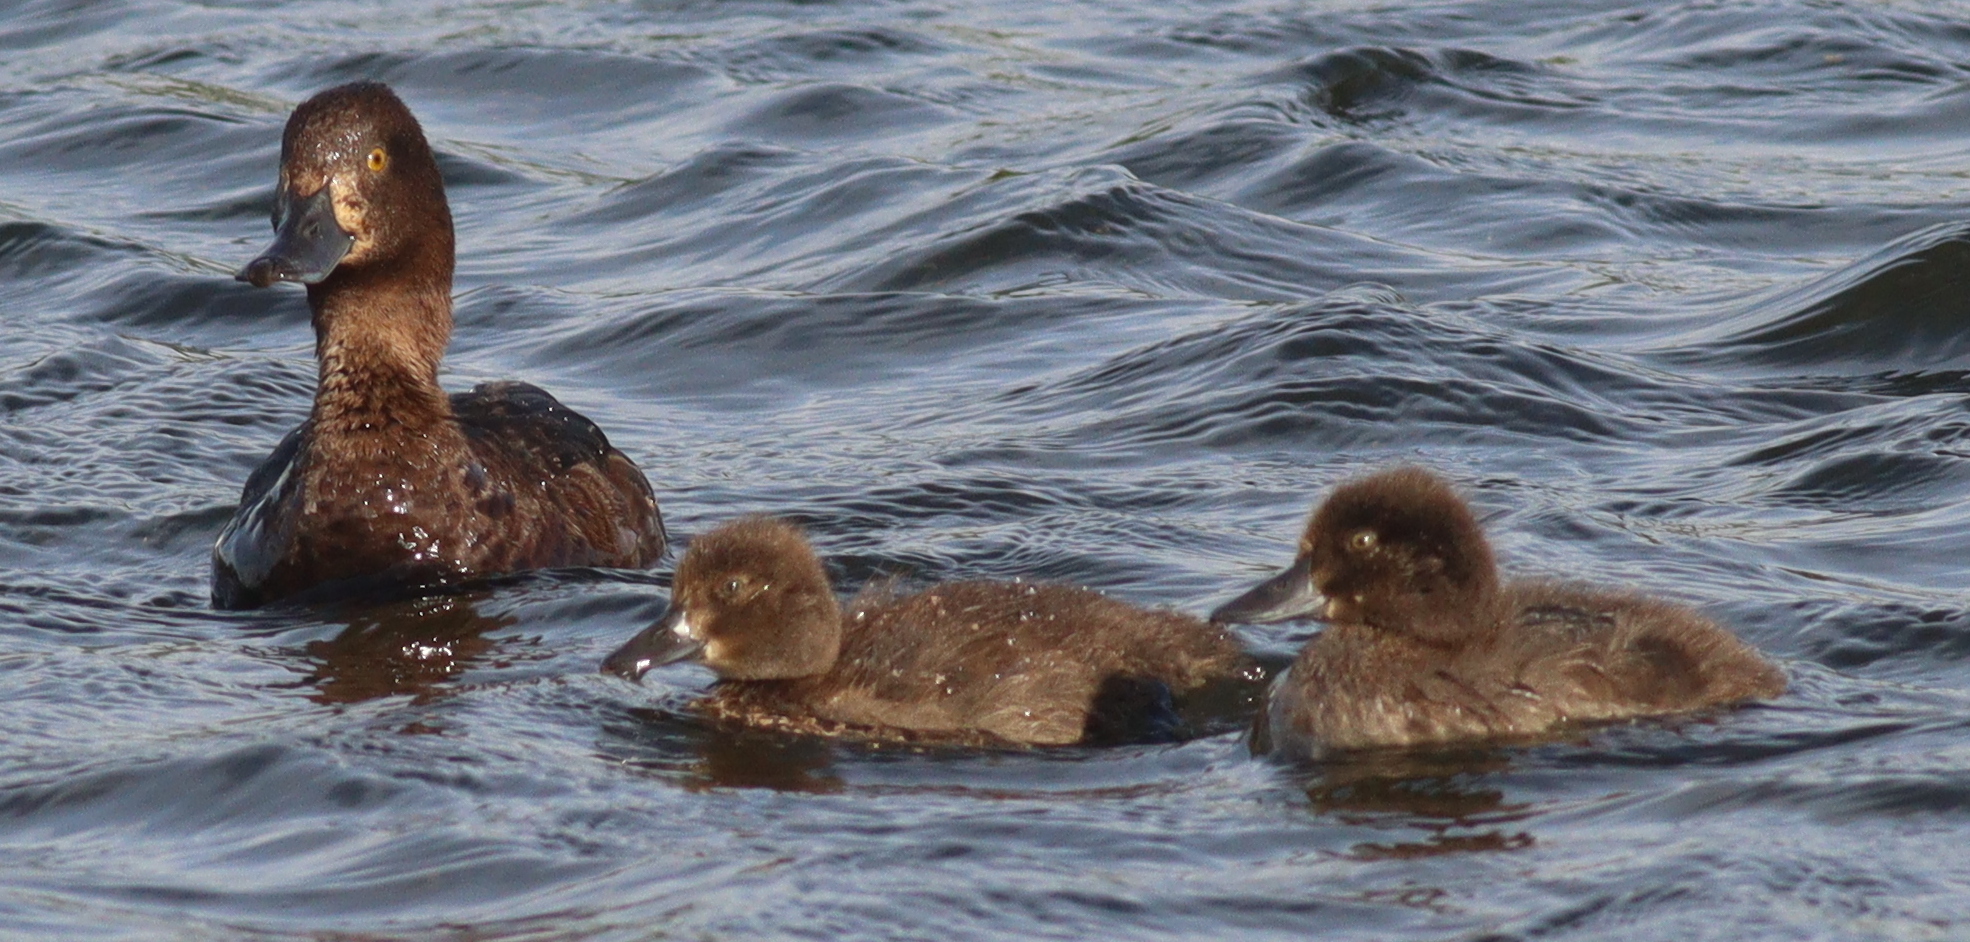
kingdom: Animalia
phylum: Chordata
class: Aves
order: Anseriformes
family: Anatidae
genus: Aythya
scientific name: Aythya fuligula
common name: Tufted duck
